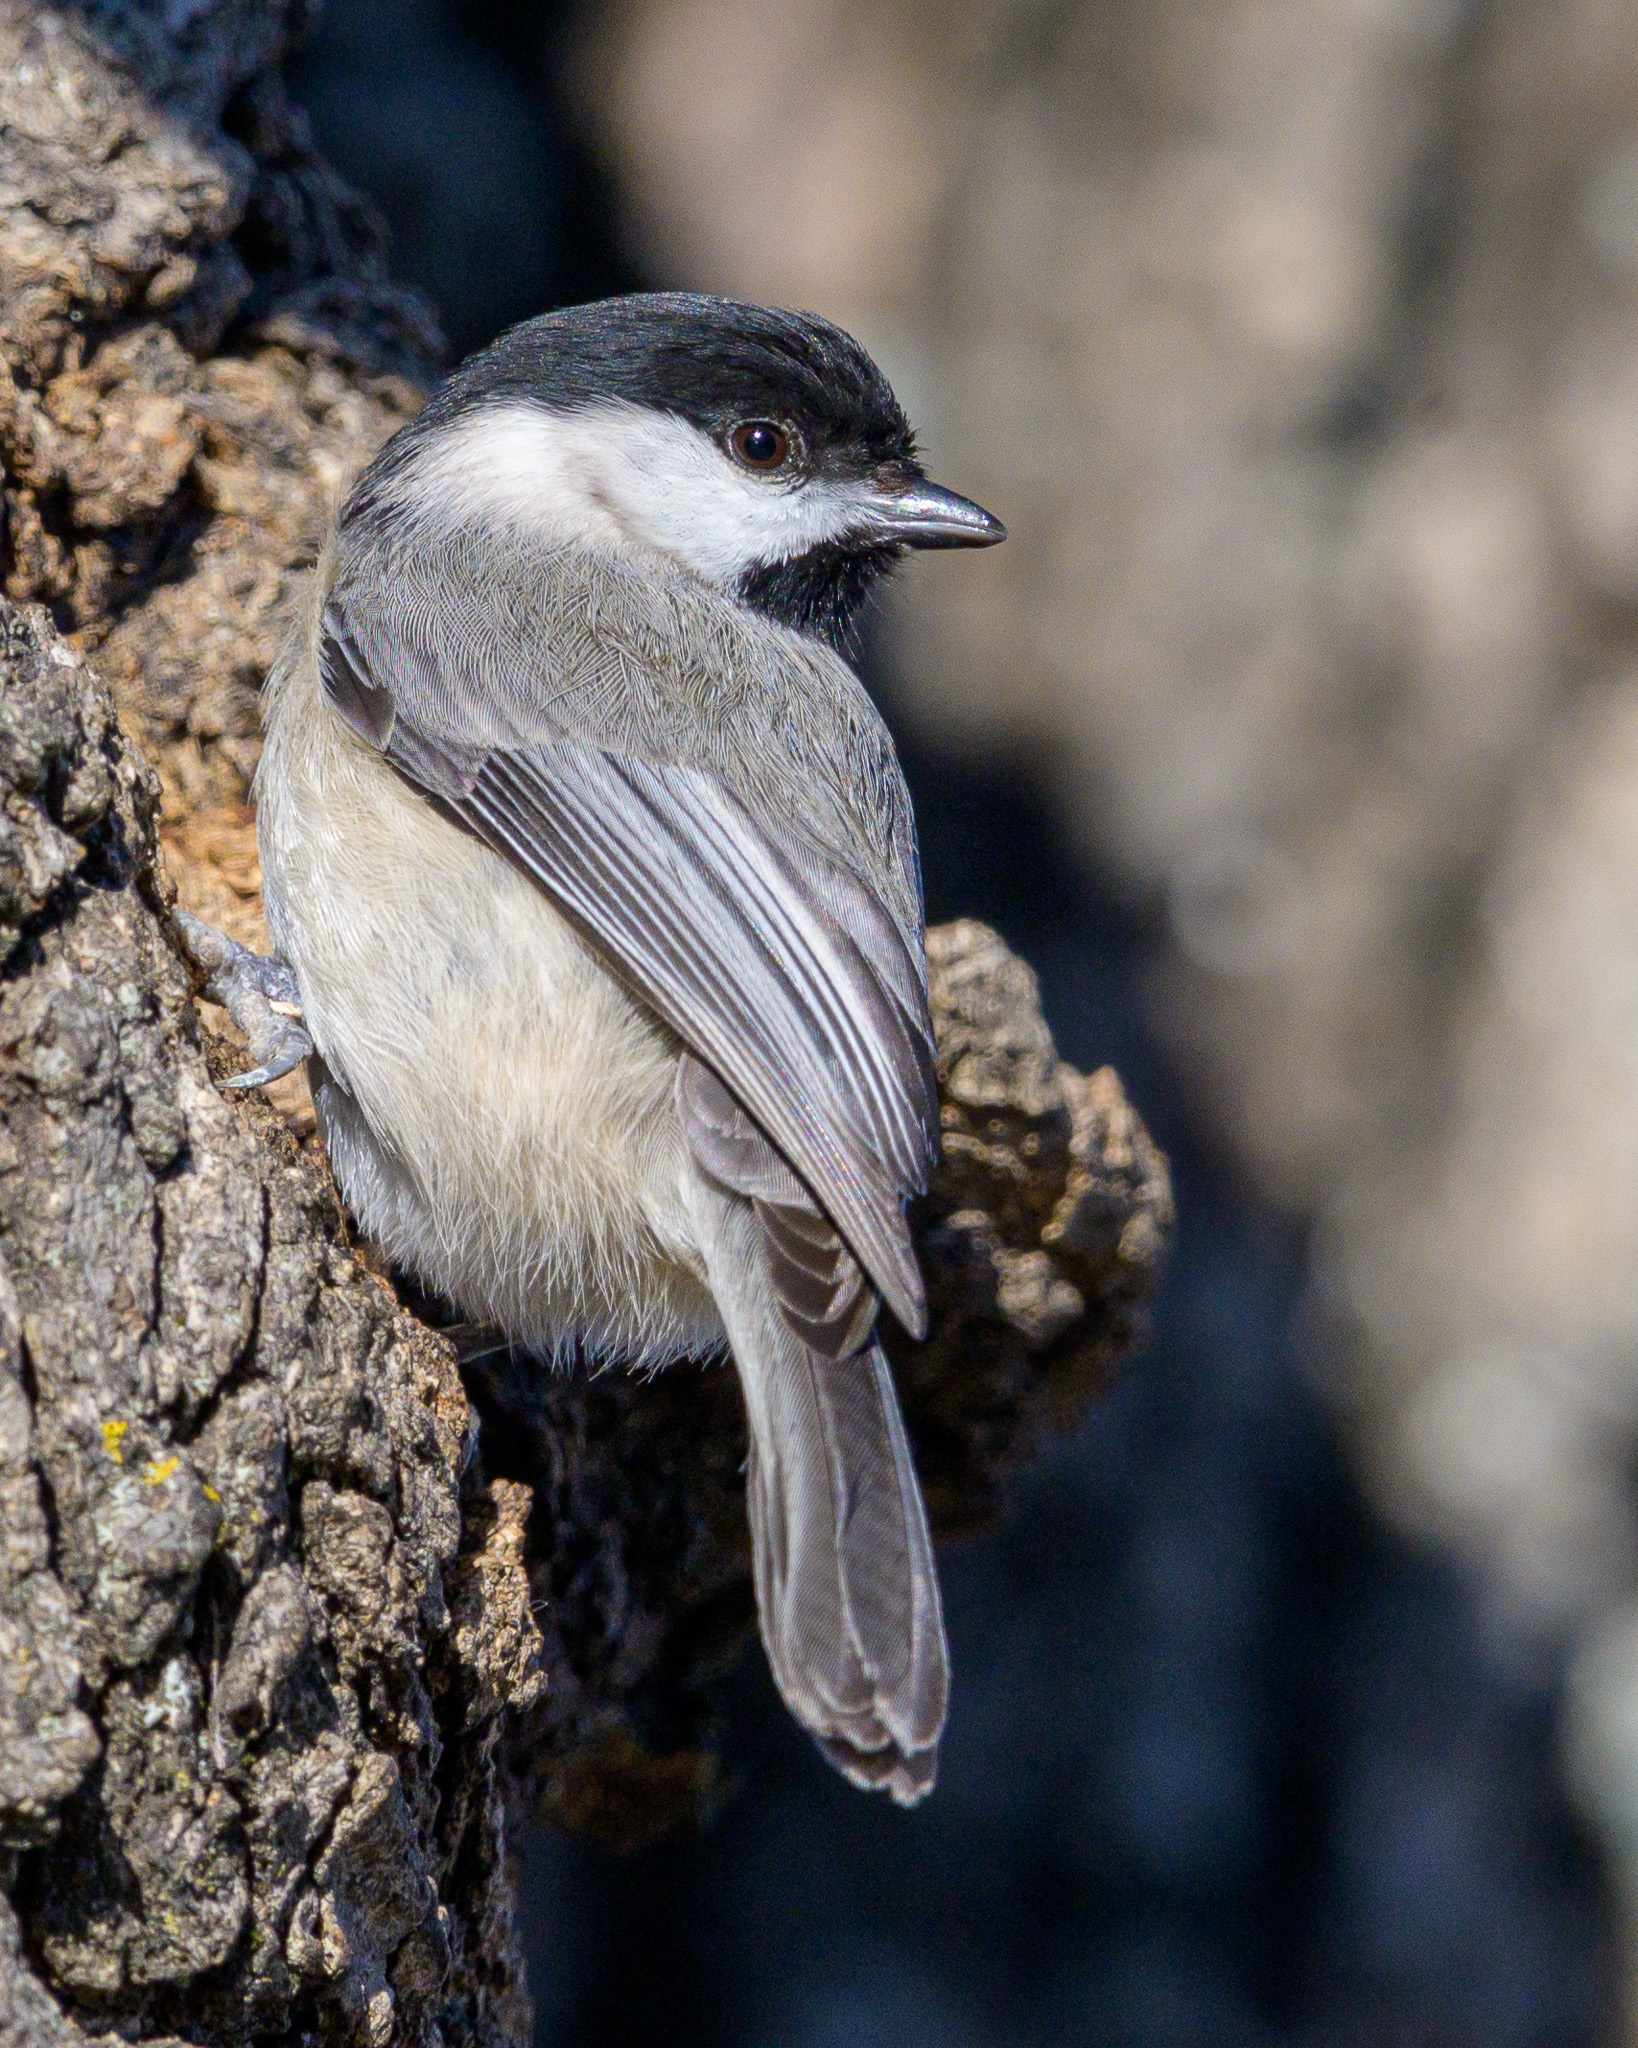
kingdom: Animalia
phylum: Chordata
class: Aves
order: Passeriformes
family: Paridae
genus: Poecile
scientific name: Poecile carolinensis
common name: Carolina chickadee
